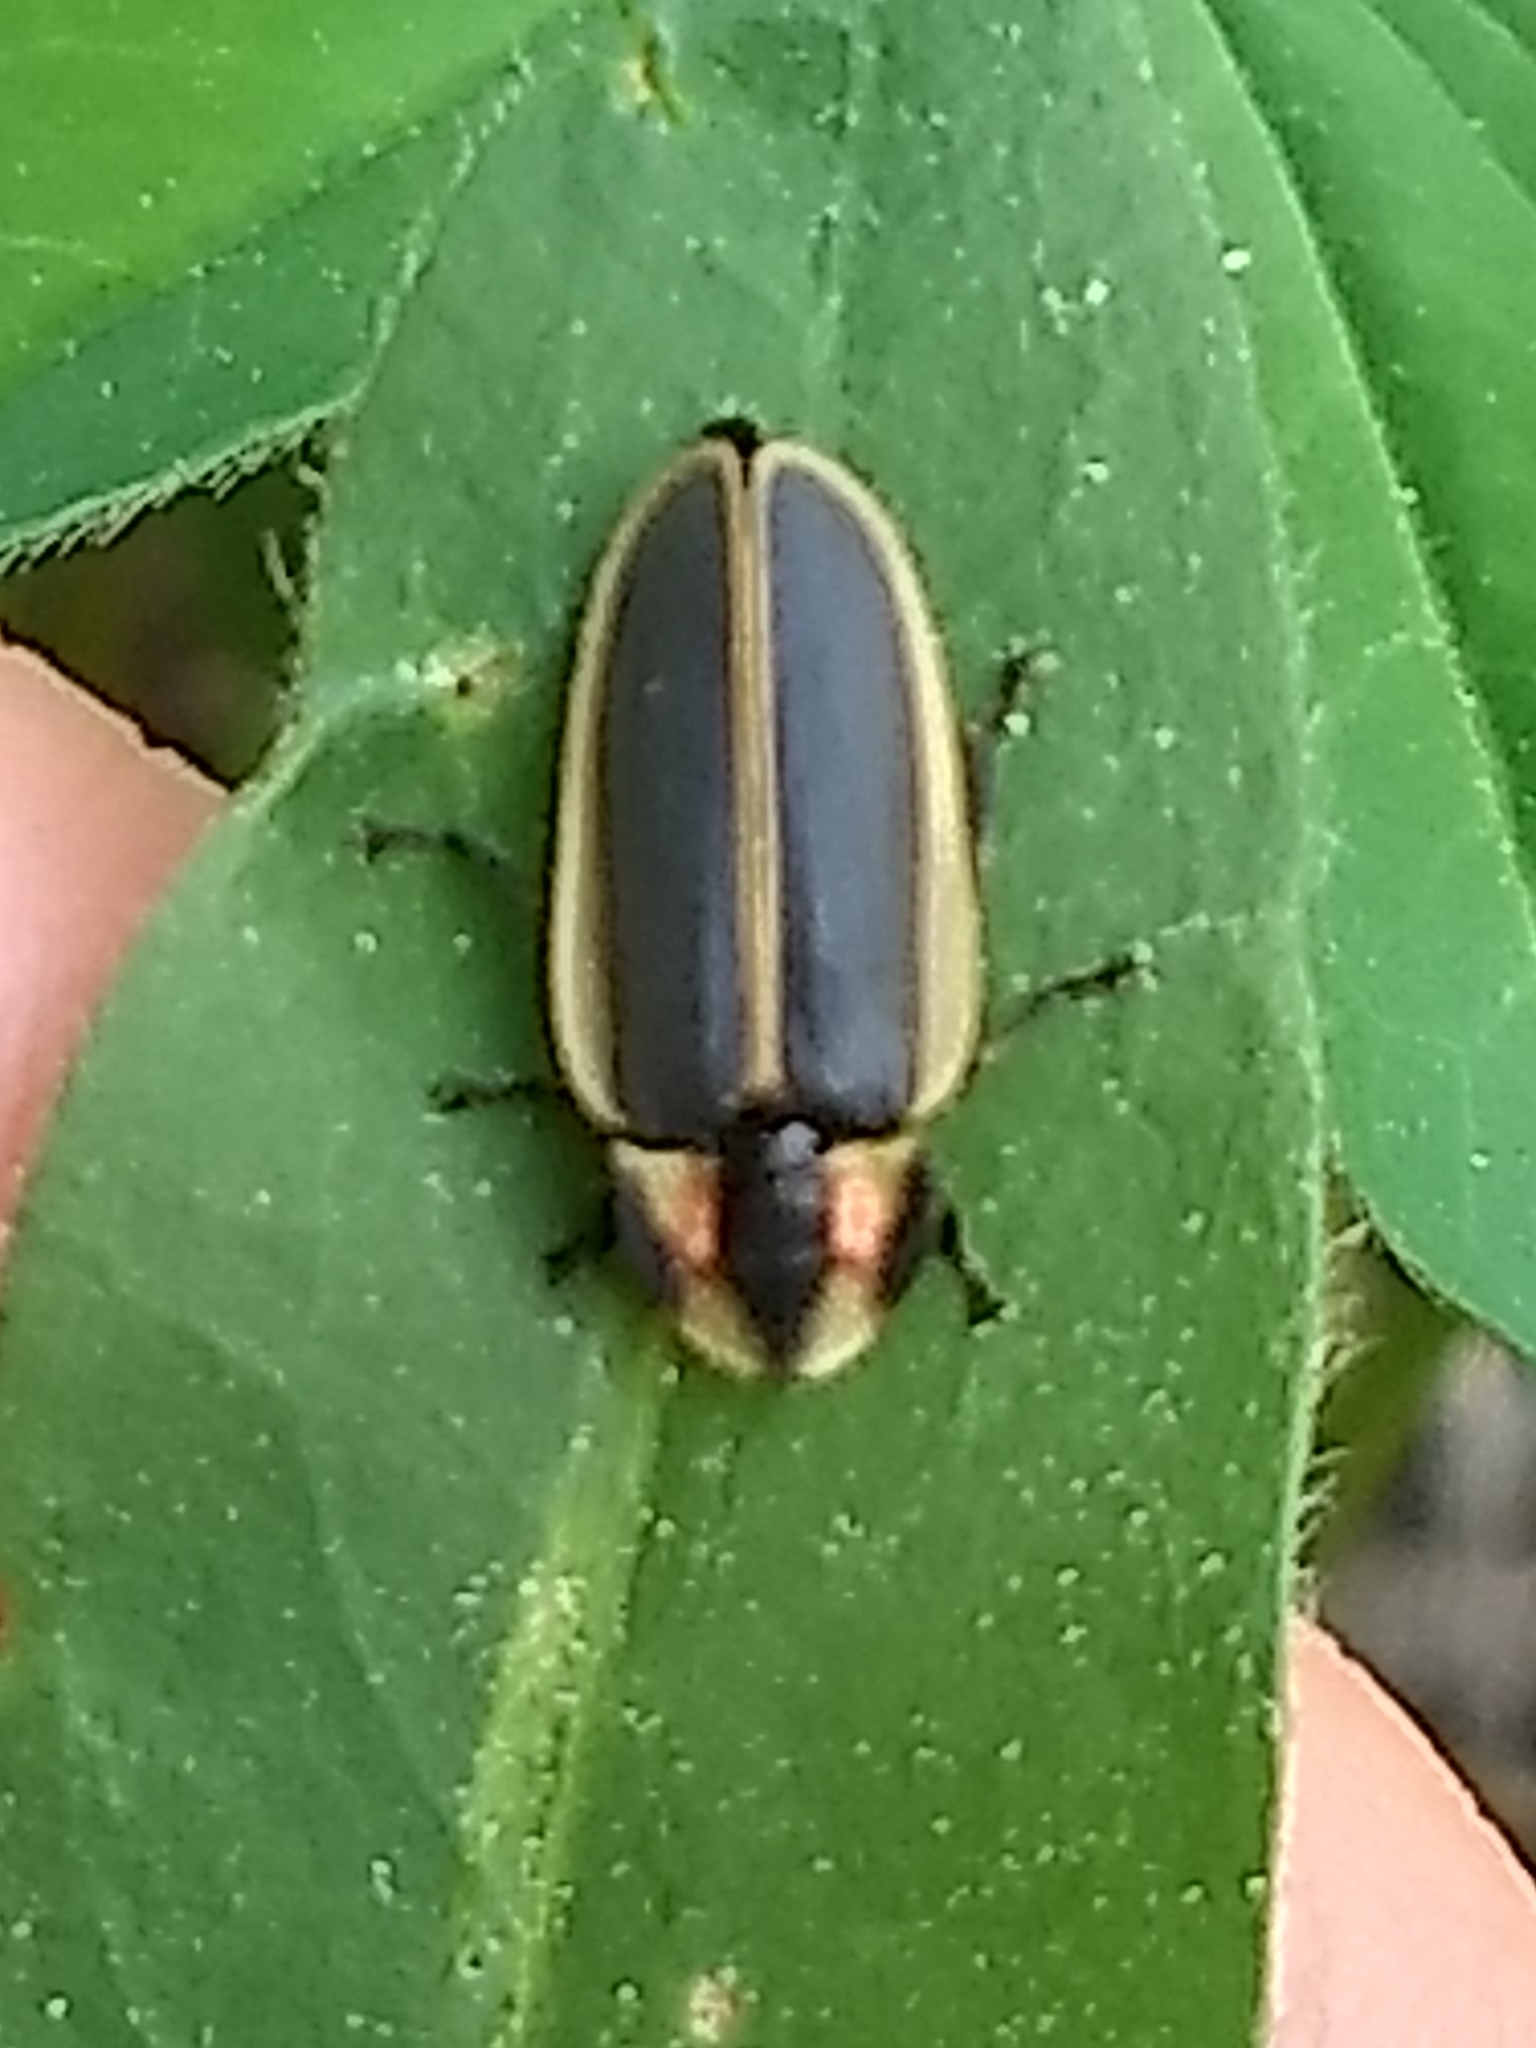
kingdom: Animalia
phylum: Arthropoda
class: Insecta
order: Coleoptera
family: Lampyridae
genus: Pyractomena
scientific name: Pyractomena angulata
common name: Candle firefly
